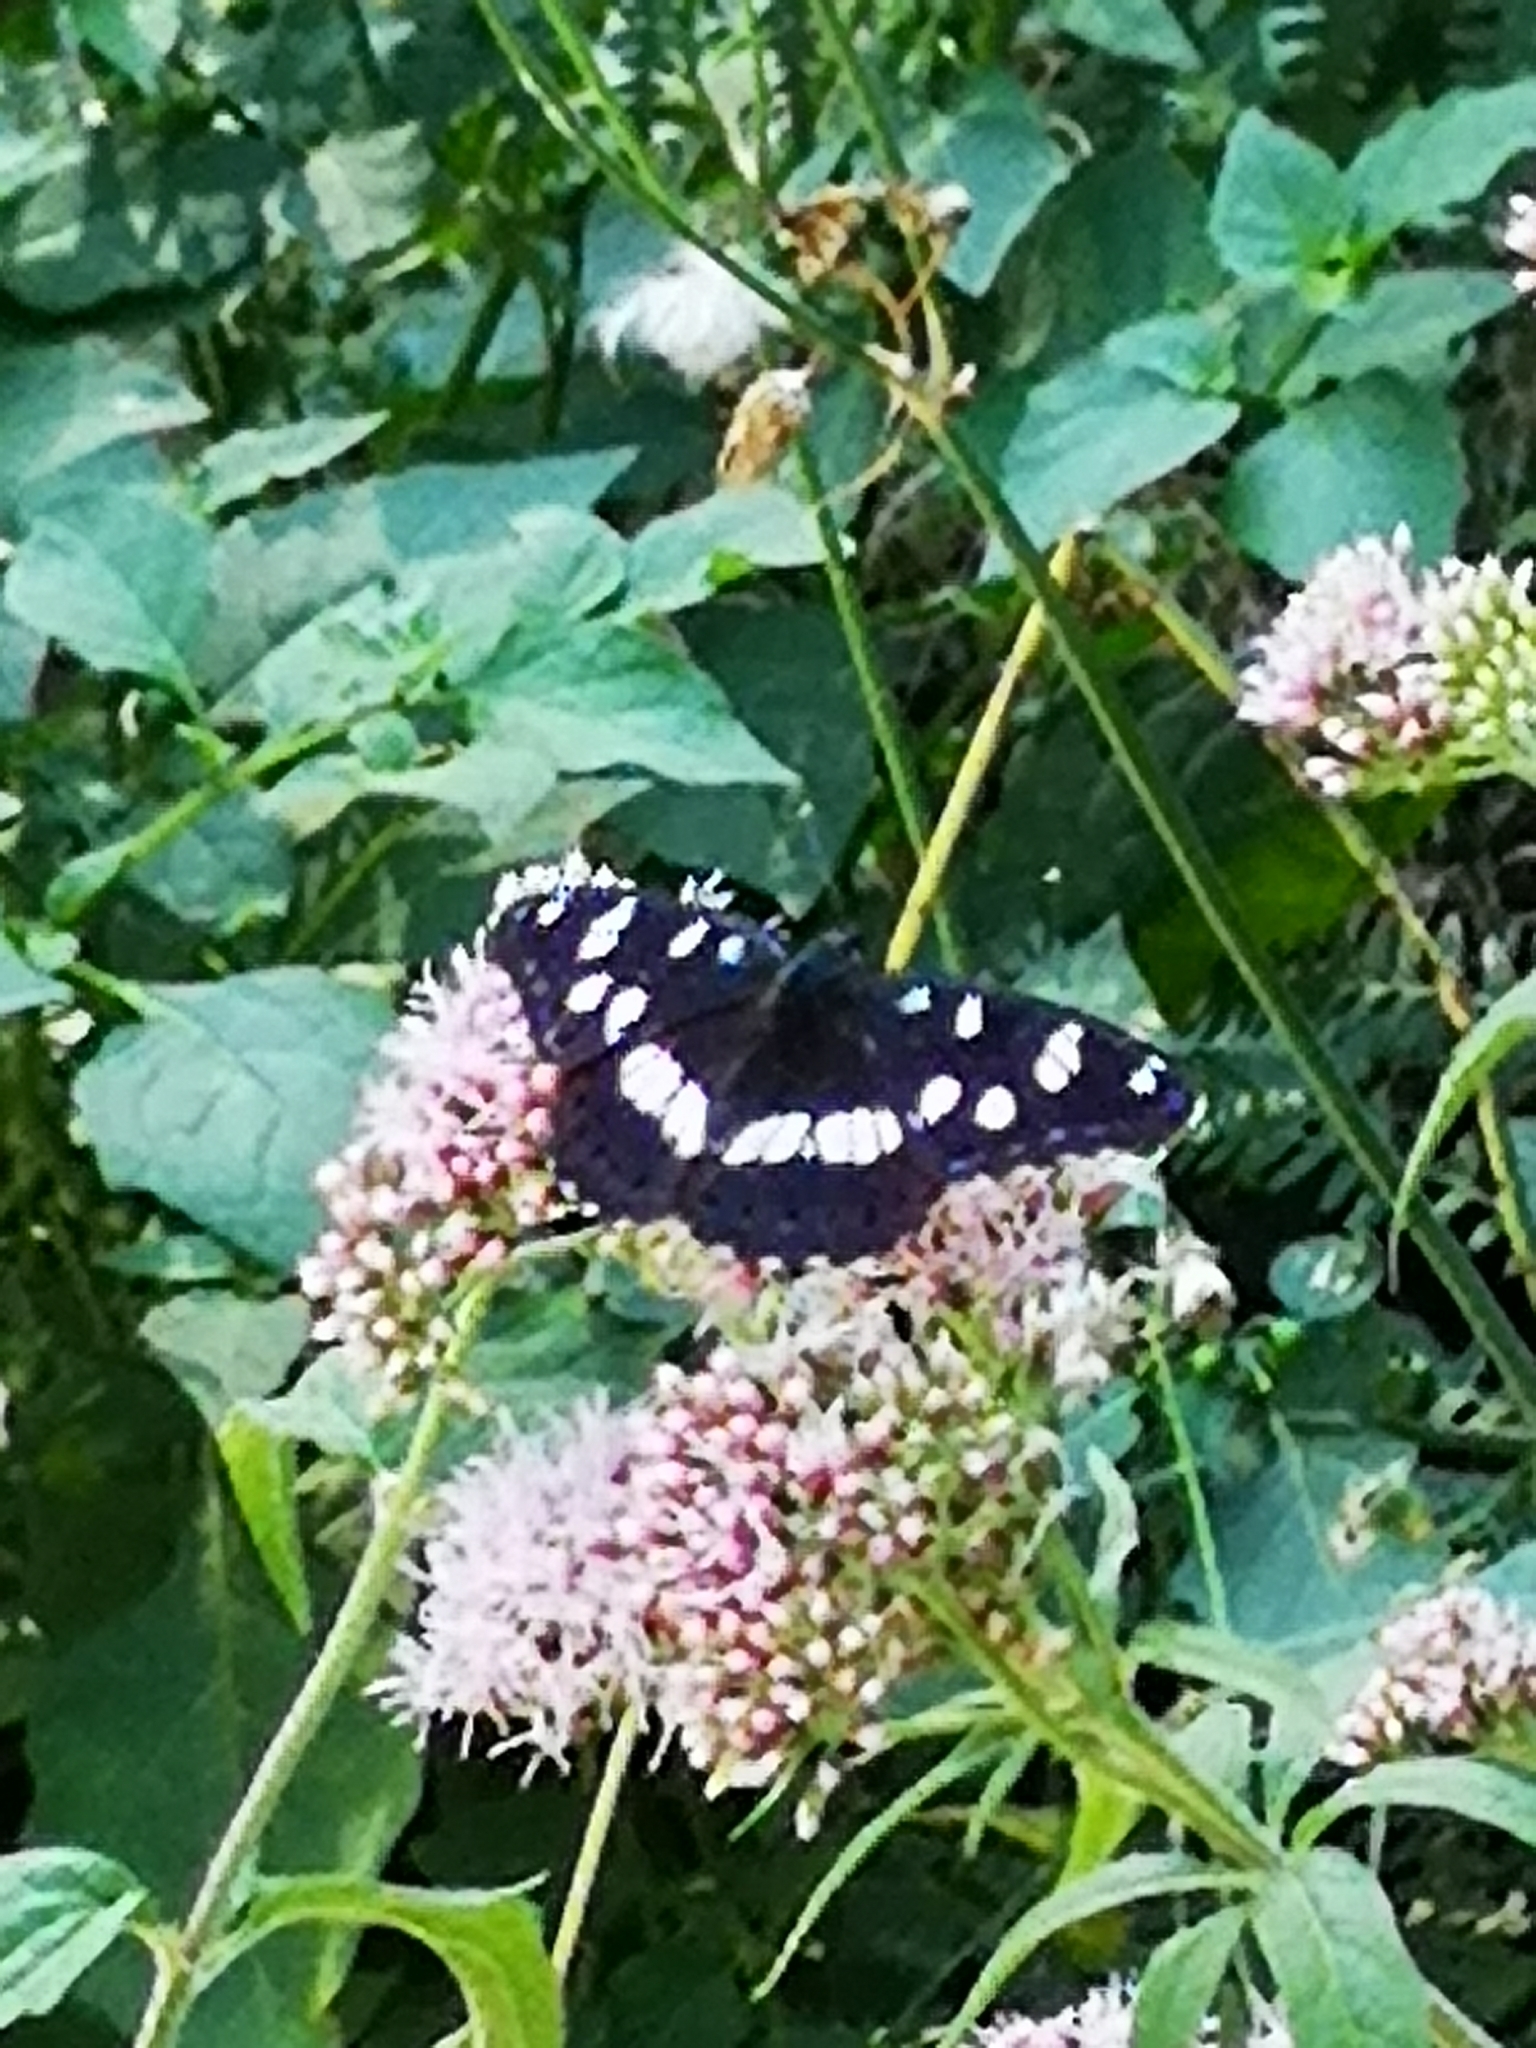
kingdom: Animalia
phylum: Arthropoda
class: Insecta
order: Lepidoptera
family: Nymphalidae
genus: Limenitis
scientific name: Limenitis reducta
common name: Southern white admiral
